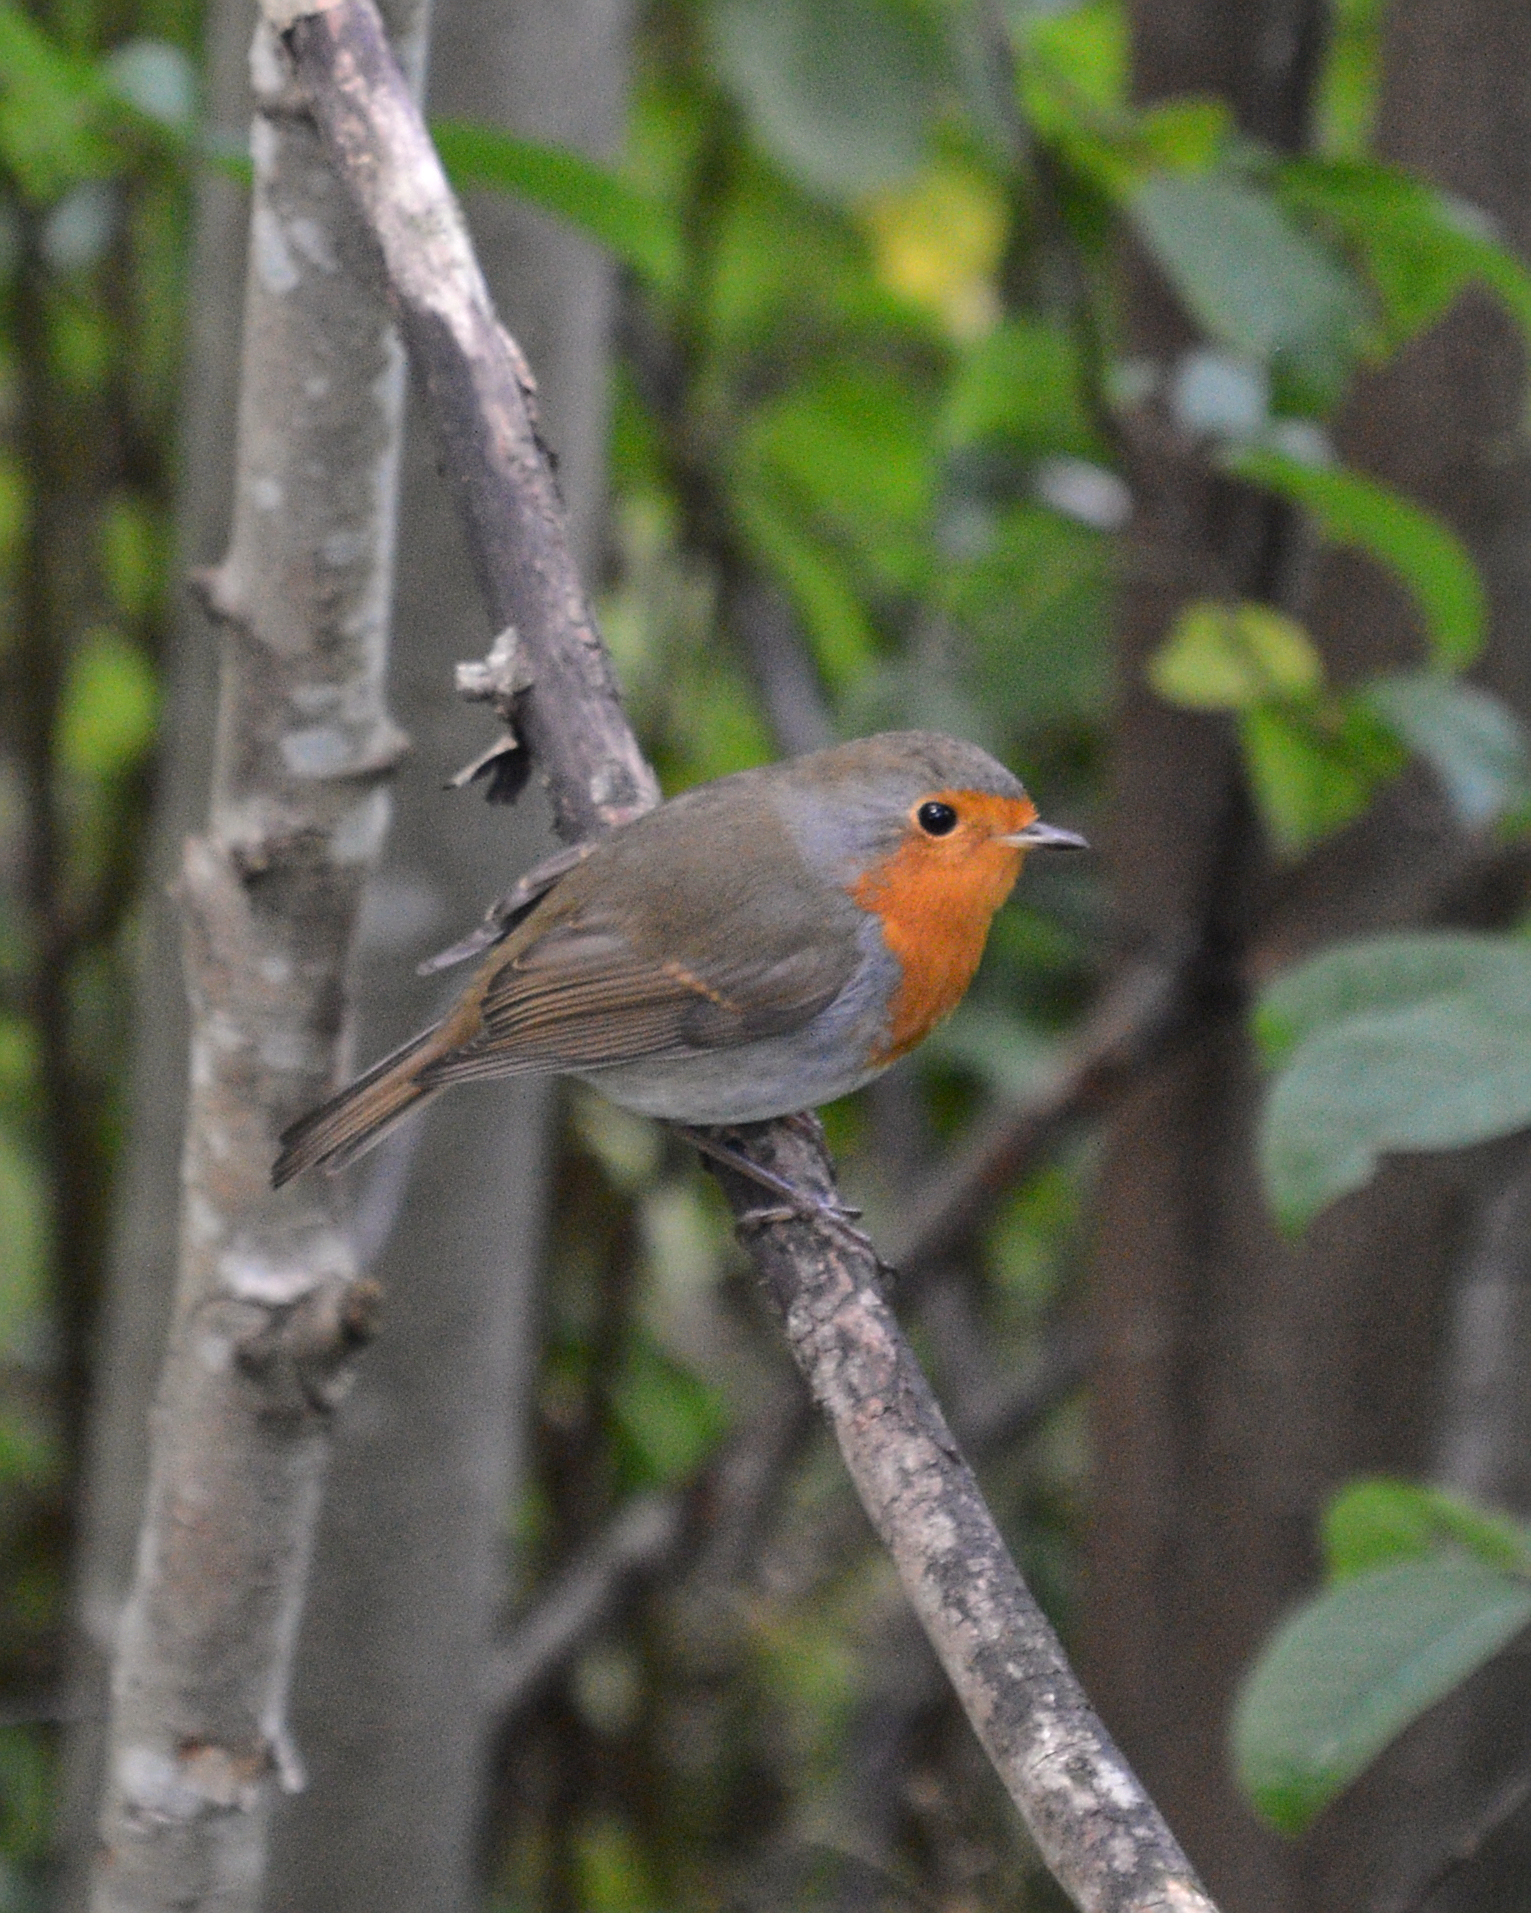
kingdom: Animalia
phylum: Chordata
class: Aves
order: Passeriformes
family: Muscicapidae
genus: Erithacus
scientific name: Erithacus rubecula
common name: European robin
